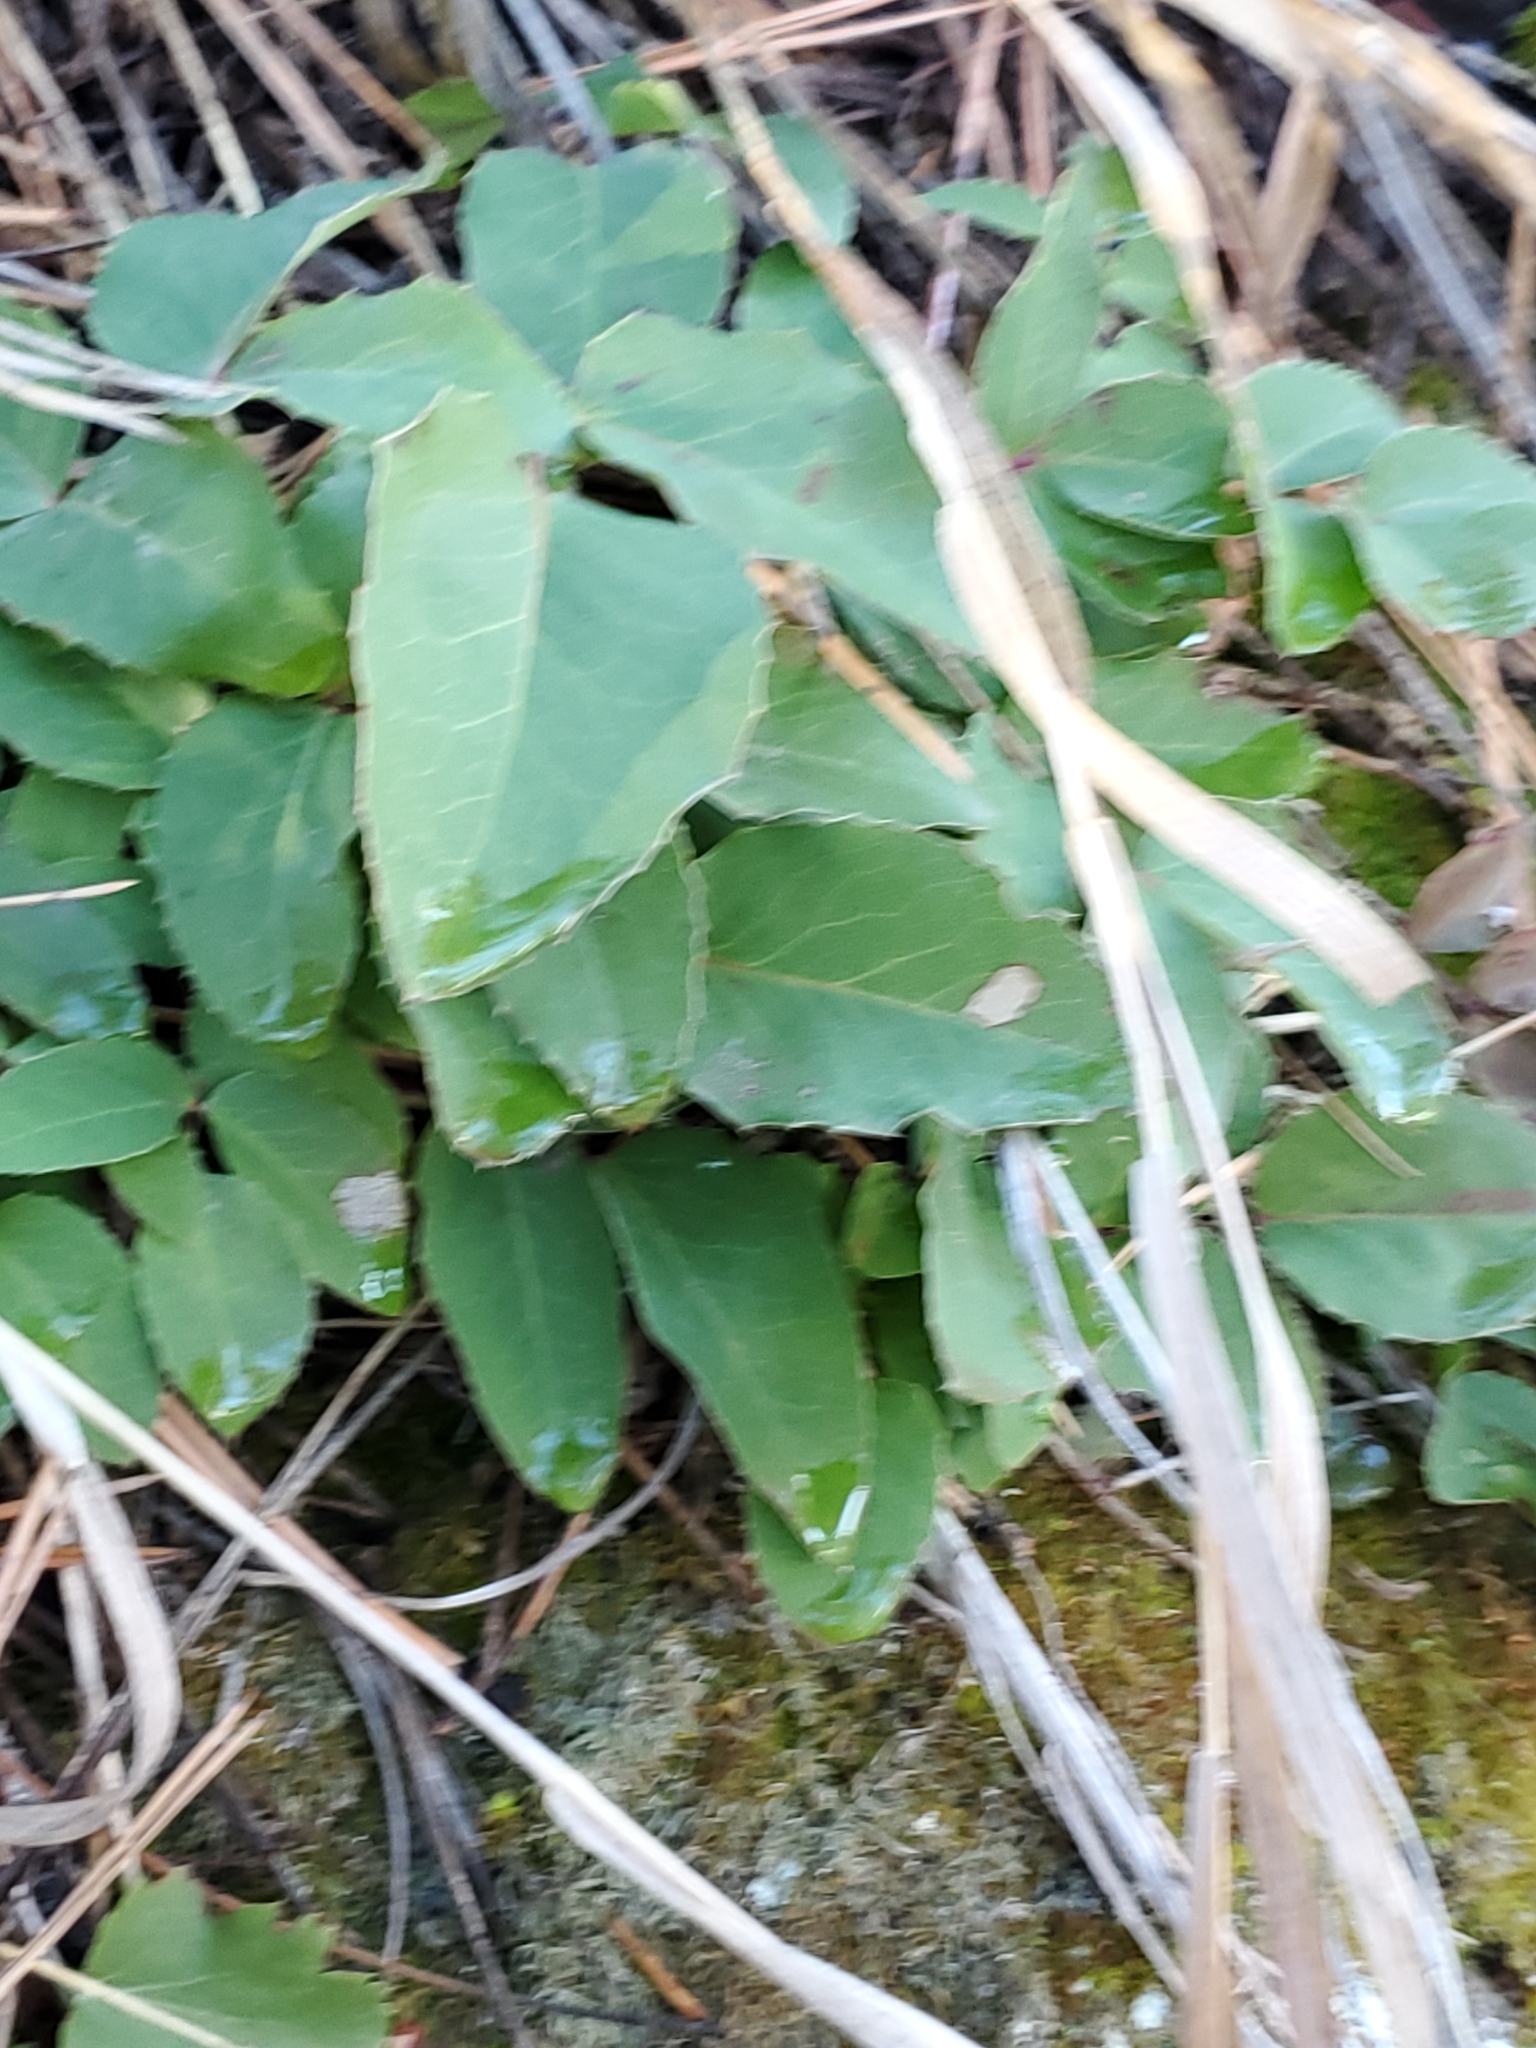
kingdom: Plantae
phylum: Tracheophyta
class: Magnoliopsida
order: Ranunculales
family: Berberidaceae
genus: Mahonia
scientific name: Mahonia repens
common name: Creeping oregon-grape
